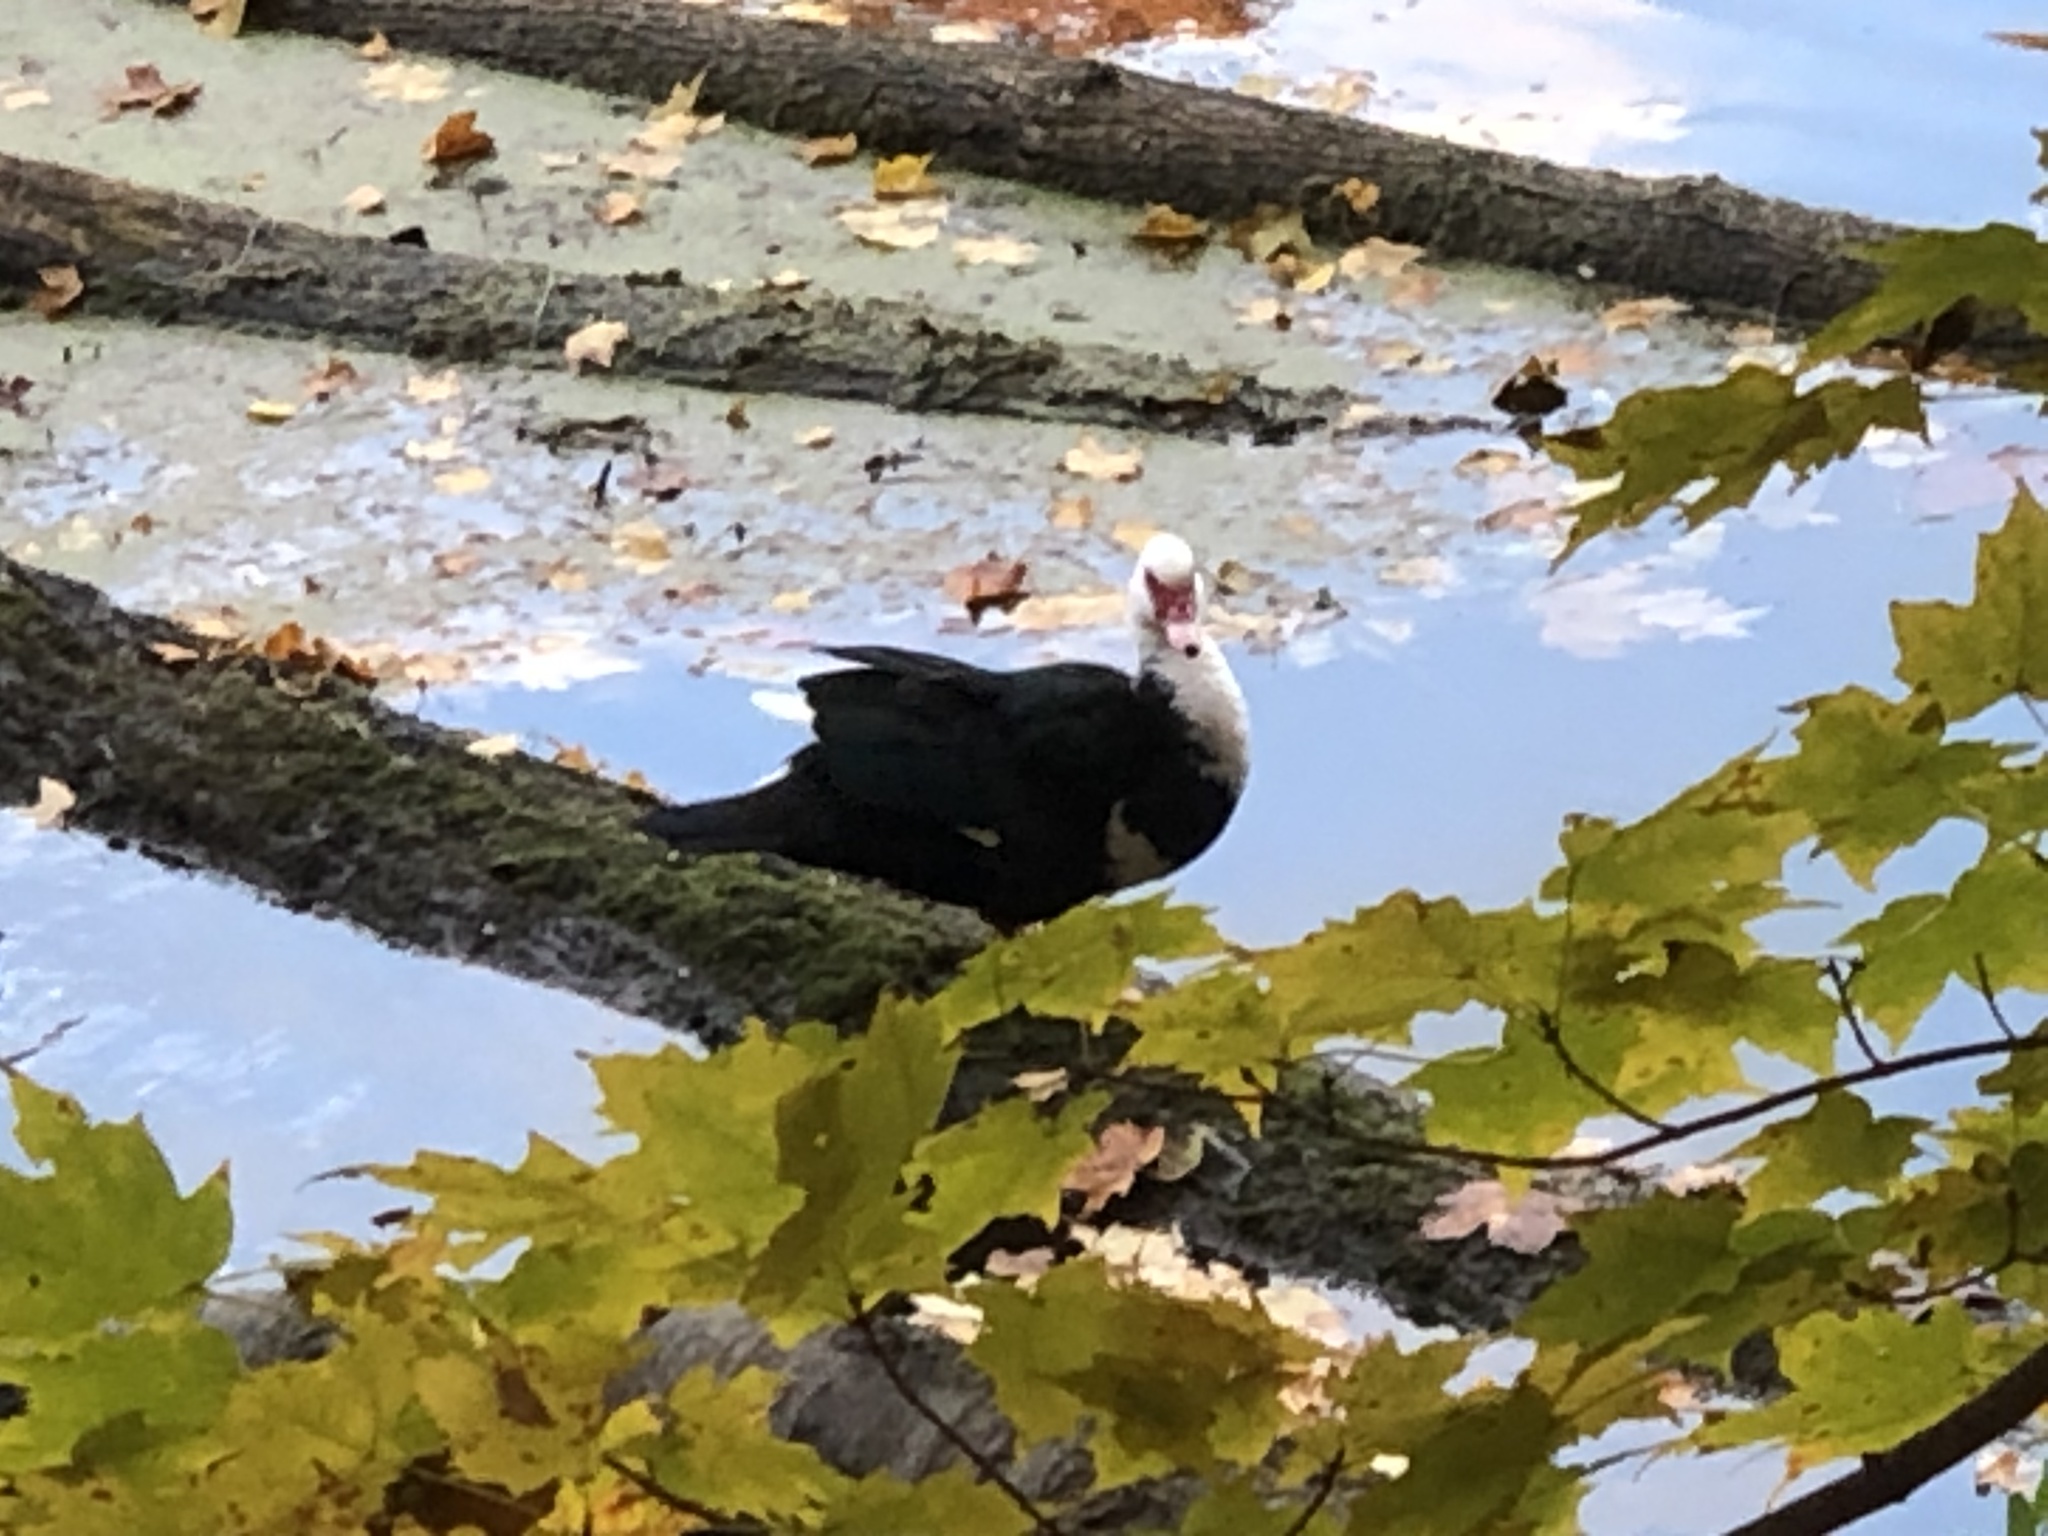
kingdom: Animalia
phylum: Chordata
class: Aves
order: Anseriformes
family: Anatidae
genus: Cairina
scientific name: Cairina moschata
